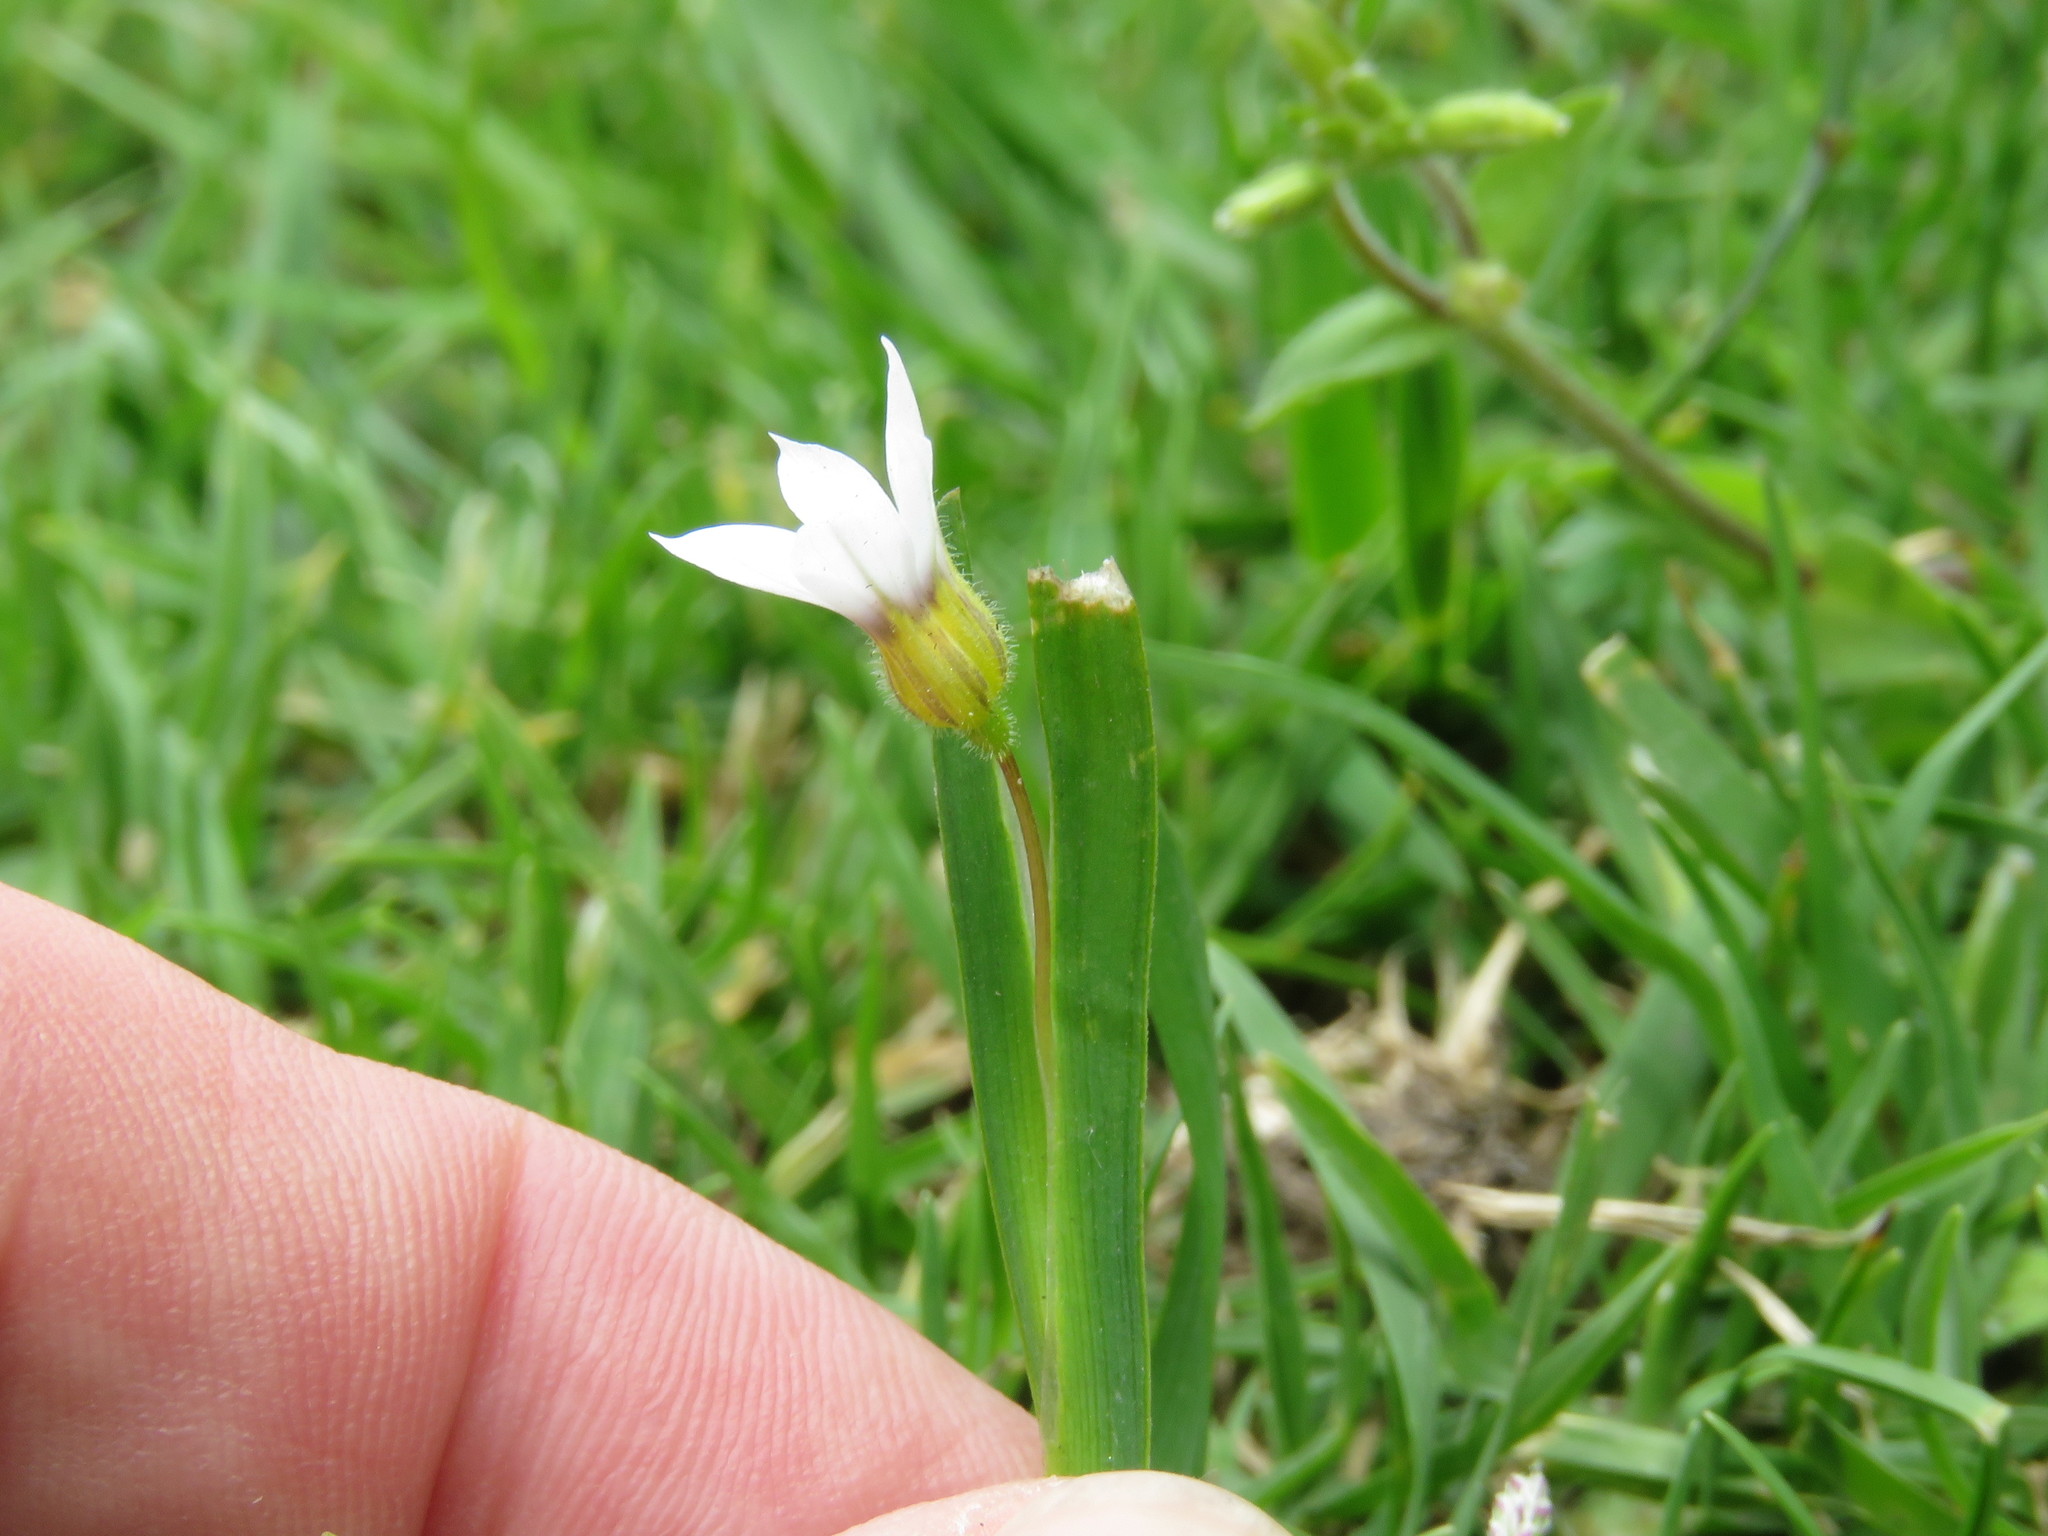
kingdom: Plantae
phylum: Tracheophyta
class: Liliopsida
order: Asparagales
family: Iridaceae
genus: Sisyrinchium
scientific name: Sisyrinchium micranthum
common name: Bermuda pigroot
